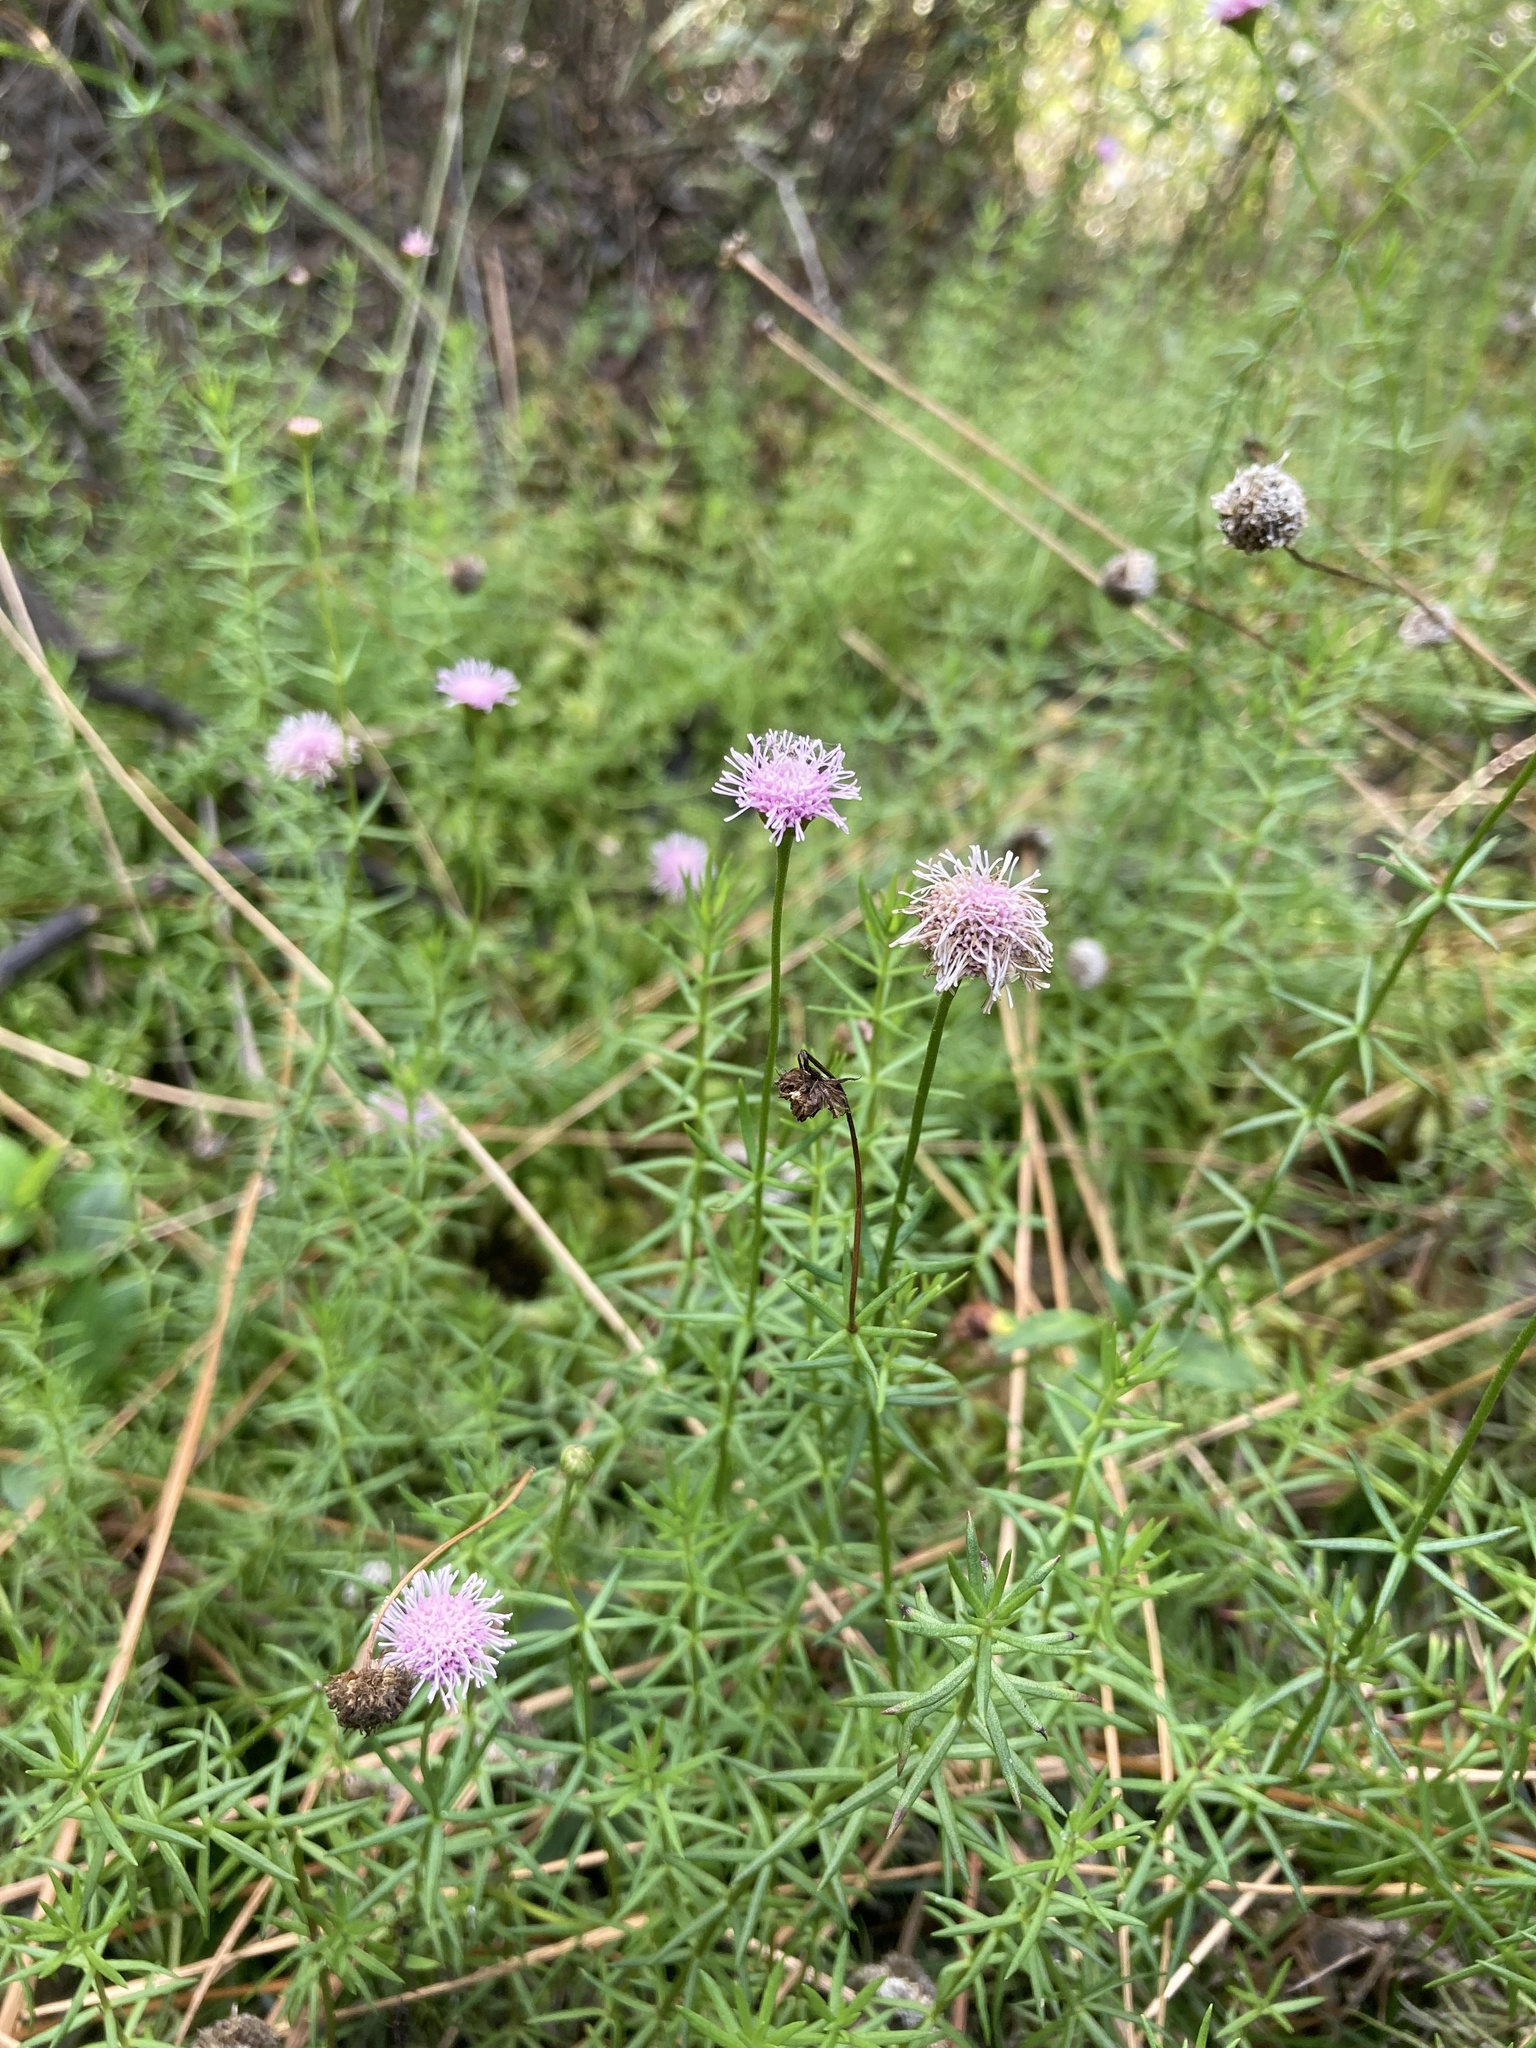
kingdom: Plantae
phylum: Tracheophyta
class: Magnoliopsida
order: Asterales
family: Asteraceae
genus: Sclerolepis
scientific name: Sclerolepis uniflora
